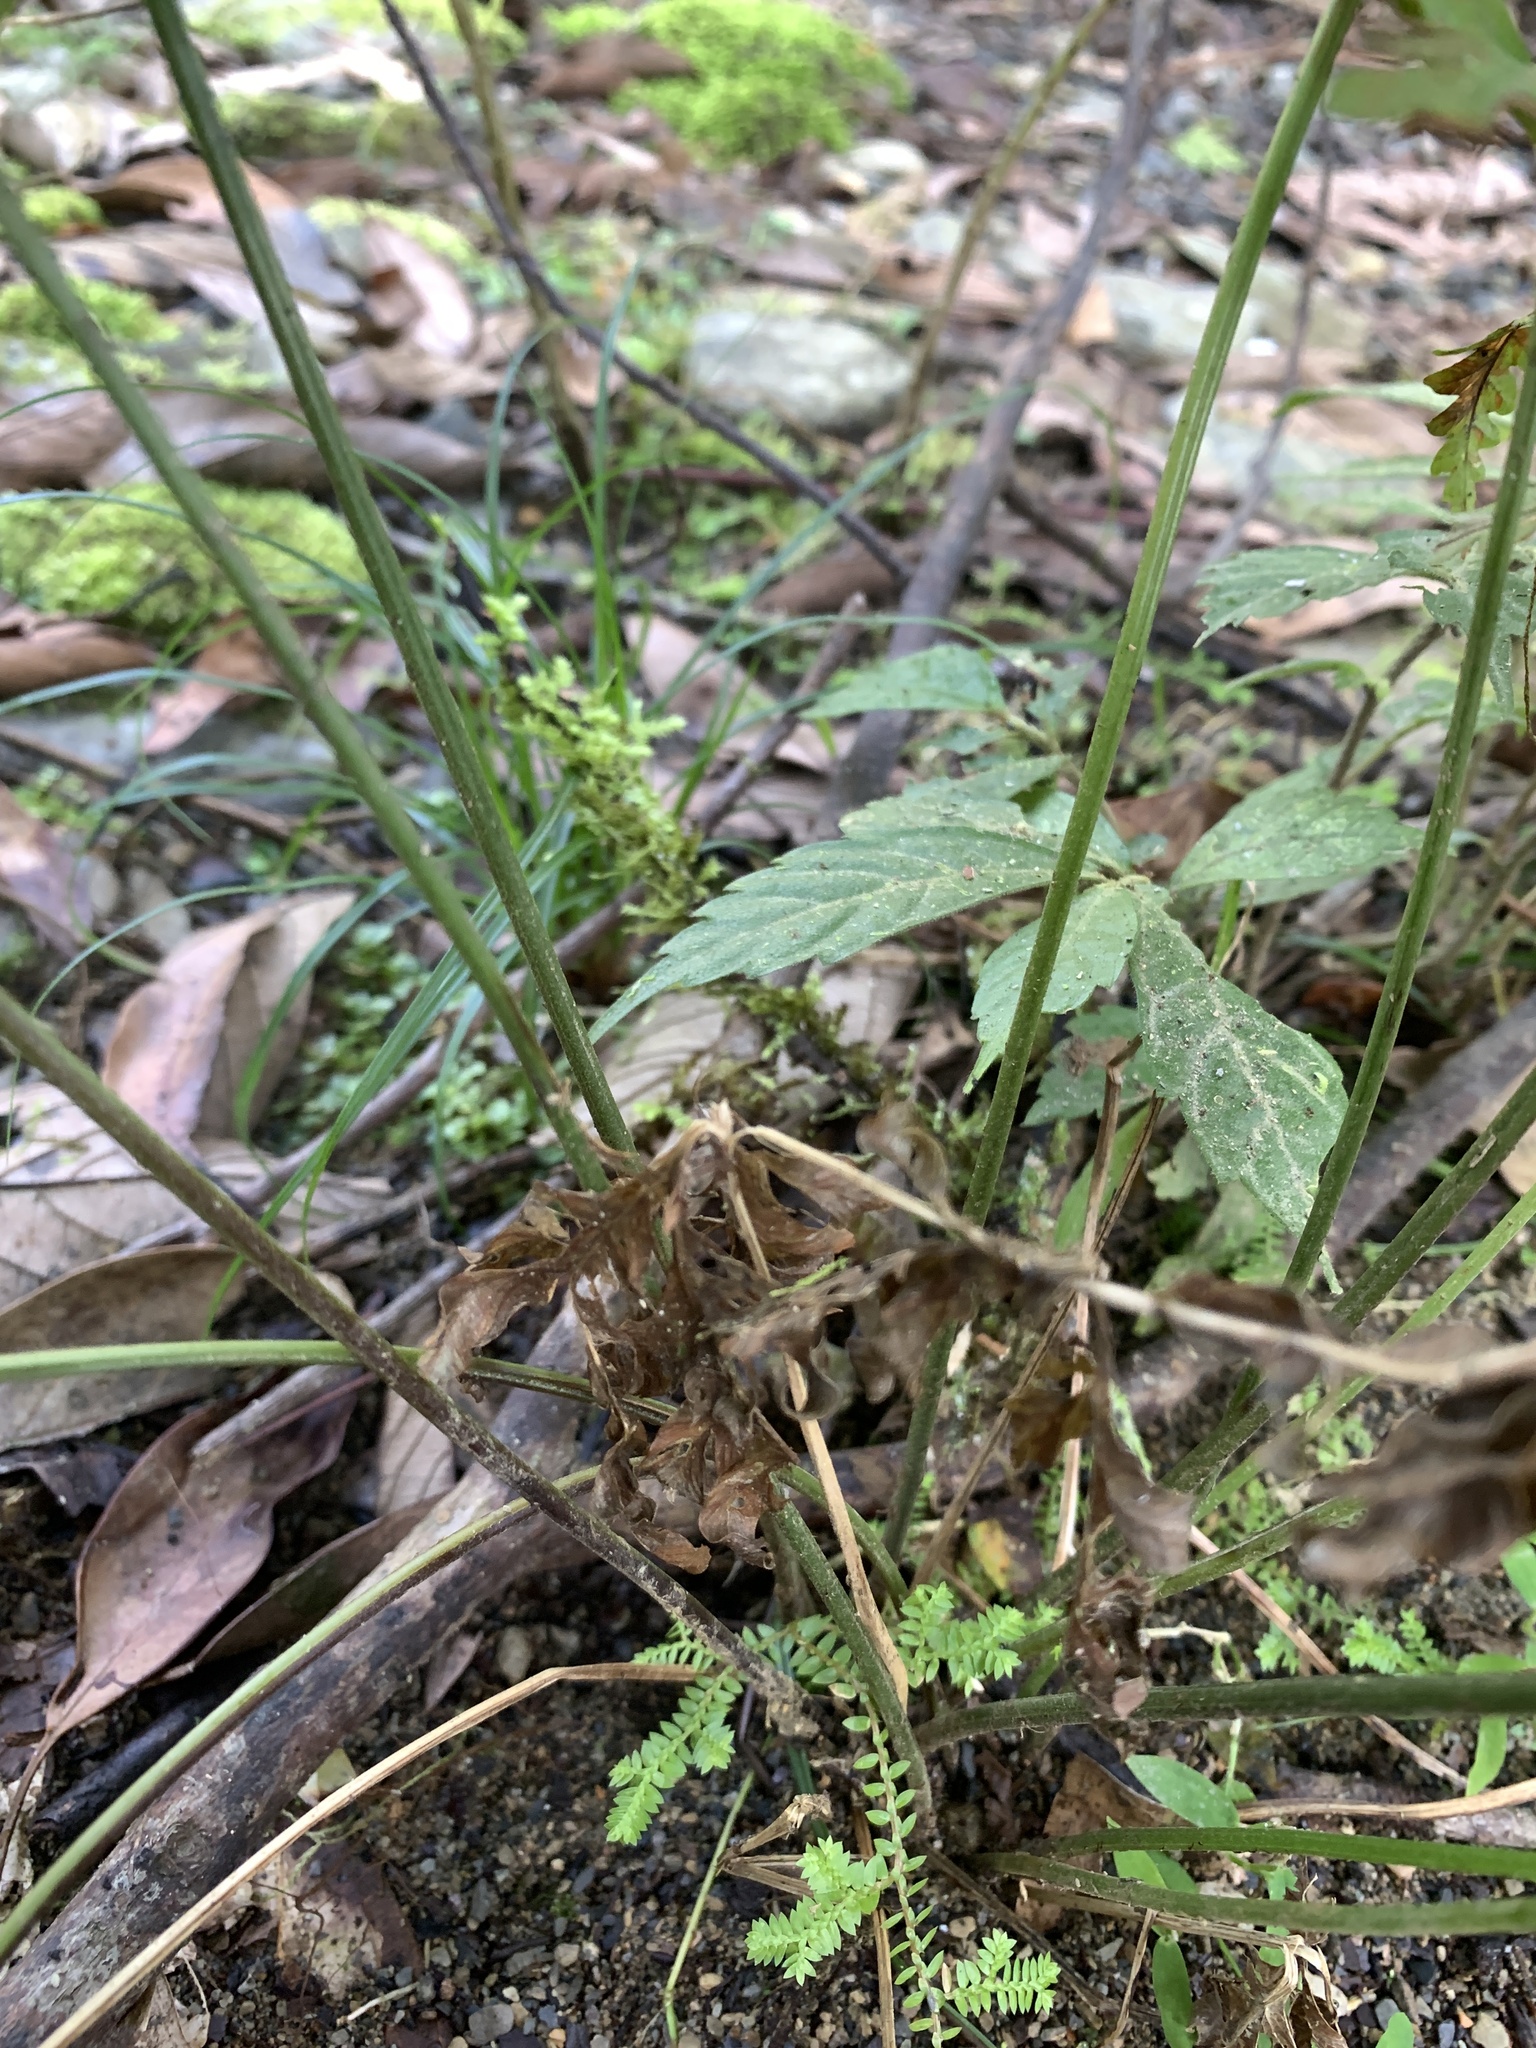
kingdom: Plantae
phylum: Tracheophyta
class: Polypodiopsida
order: Polypodiales
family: Pteridaceae
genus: Pteris
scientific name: Pteris biaurita
